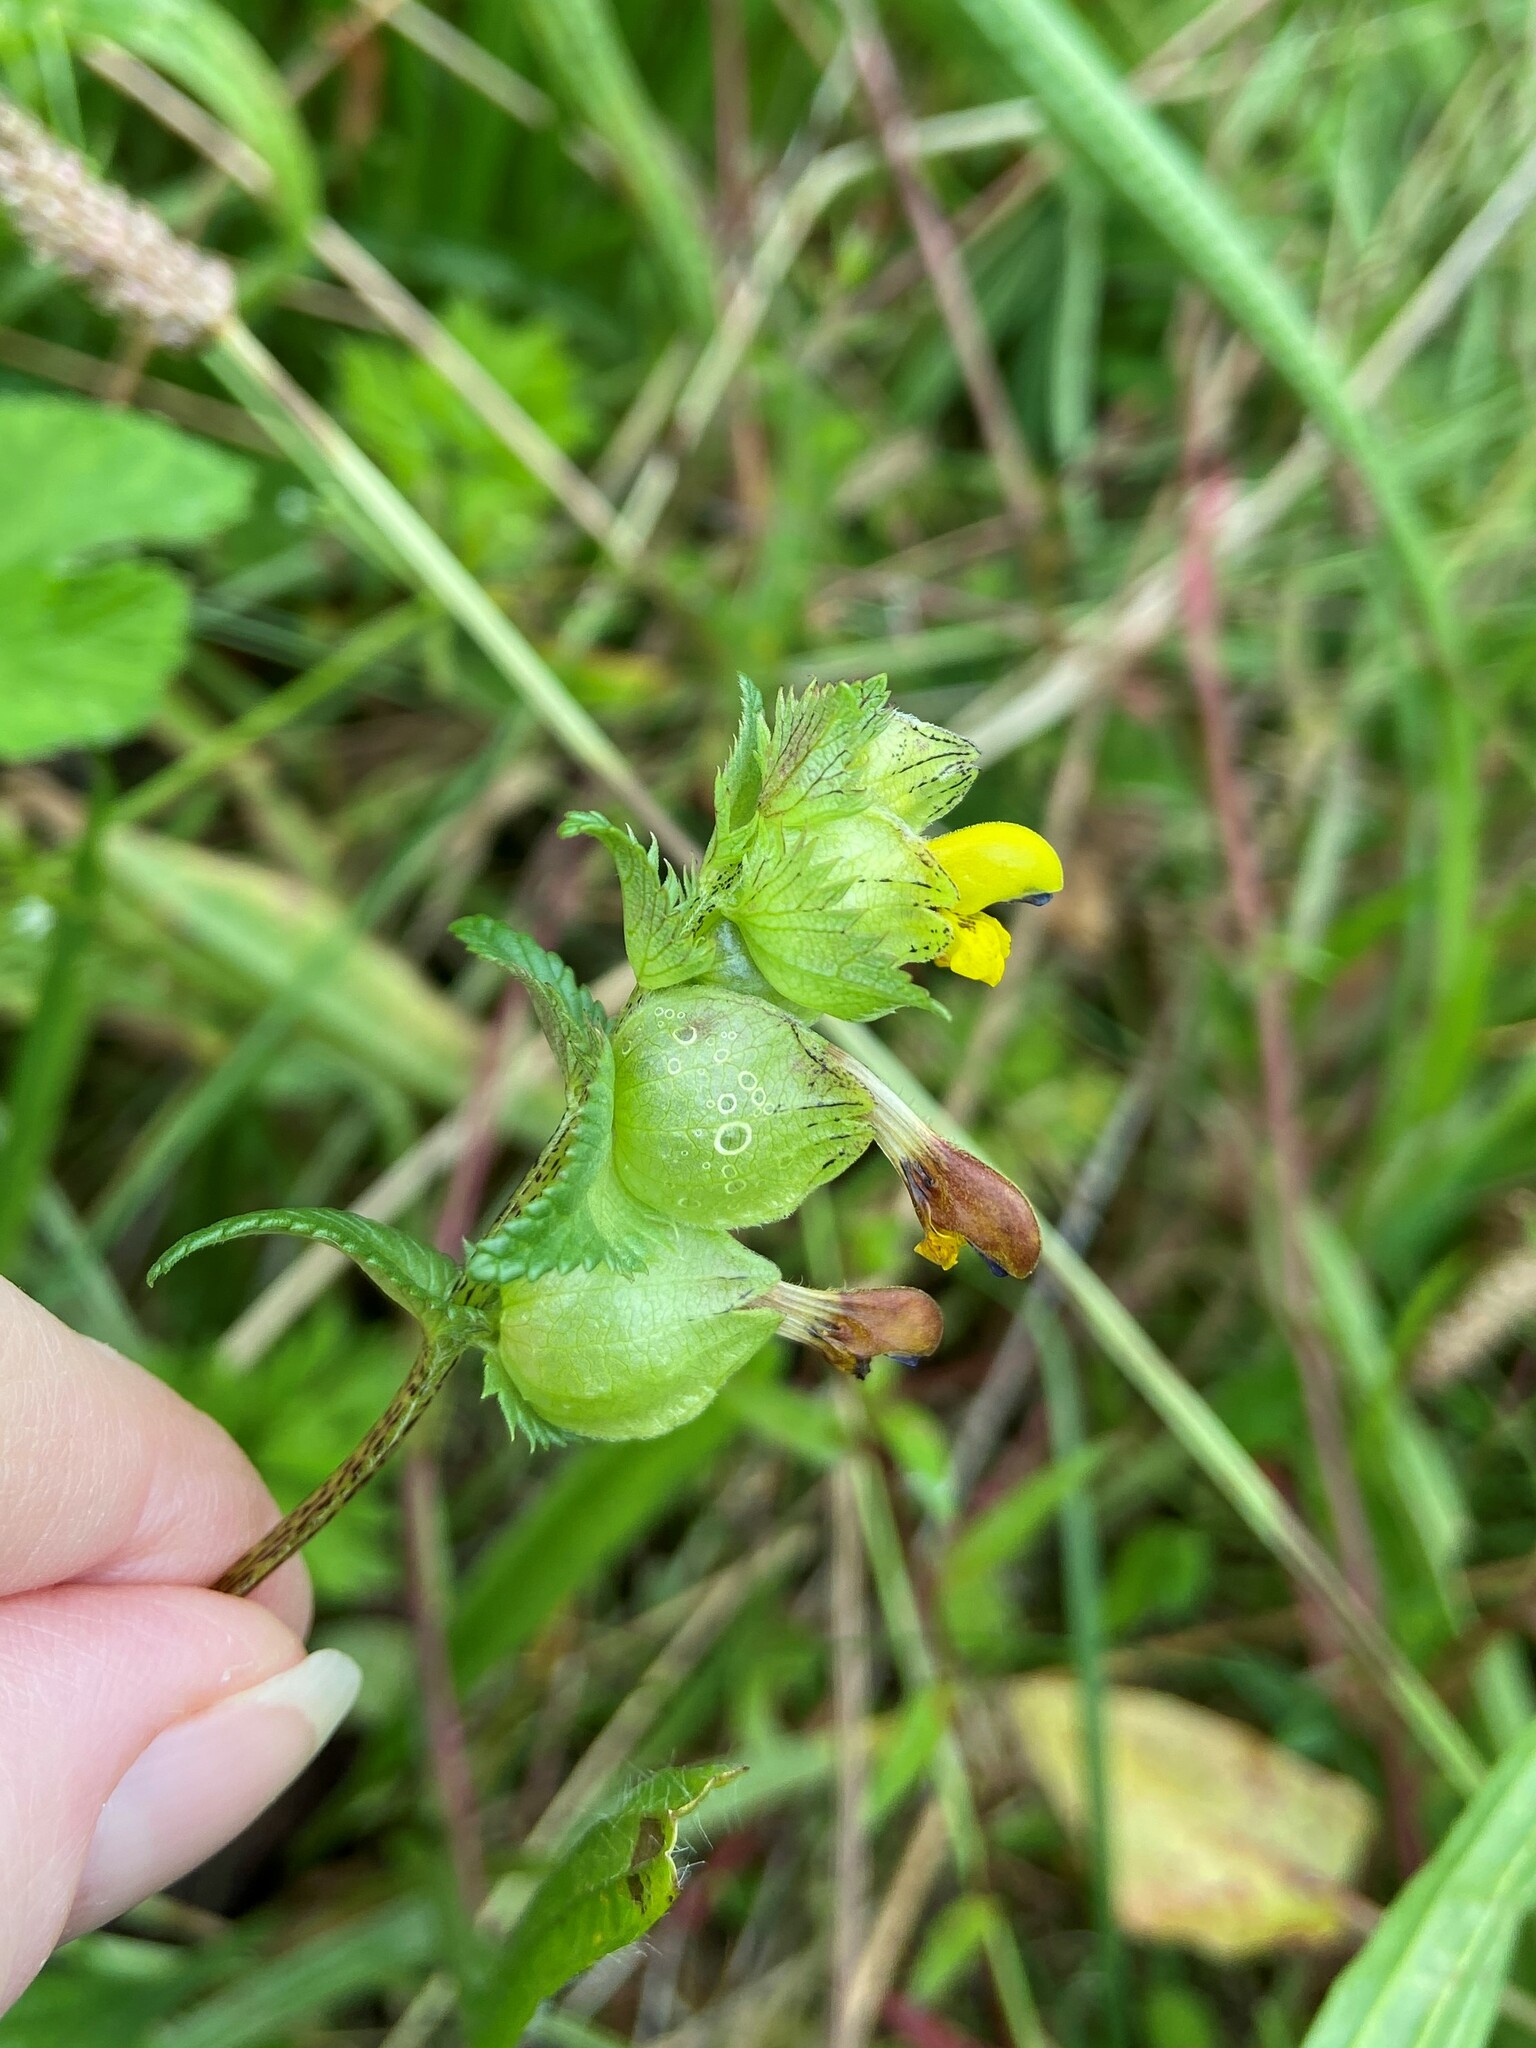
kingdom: Plantae
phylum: Tracheophyta
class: Magnoliopsida
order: Lamiales
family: Orobanchaceae
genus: Rhinanthus
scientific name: Rhinanthus minor
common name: Yellow-rattle
